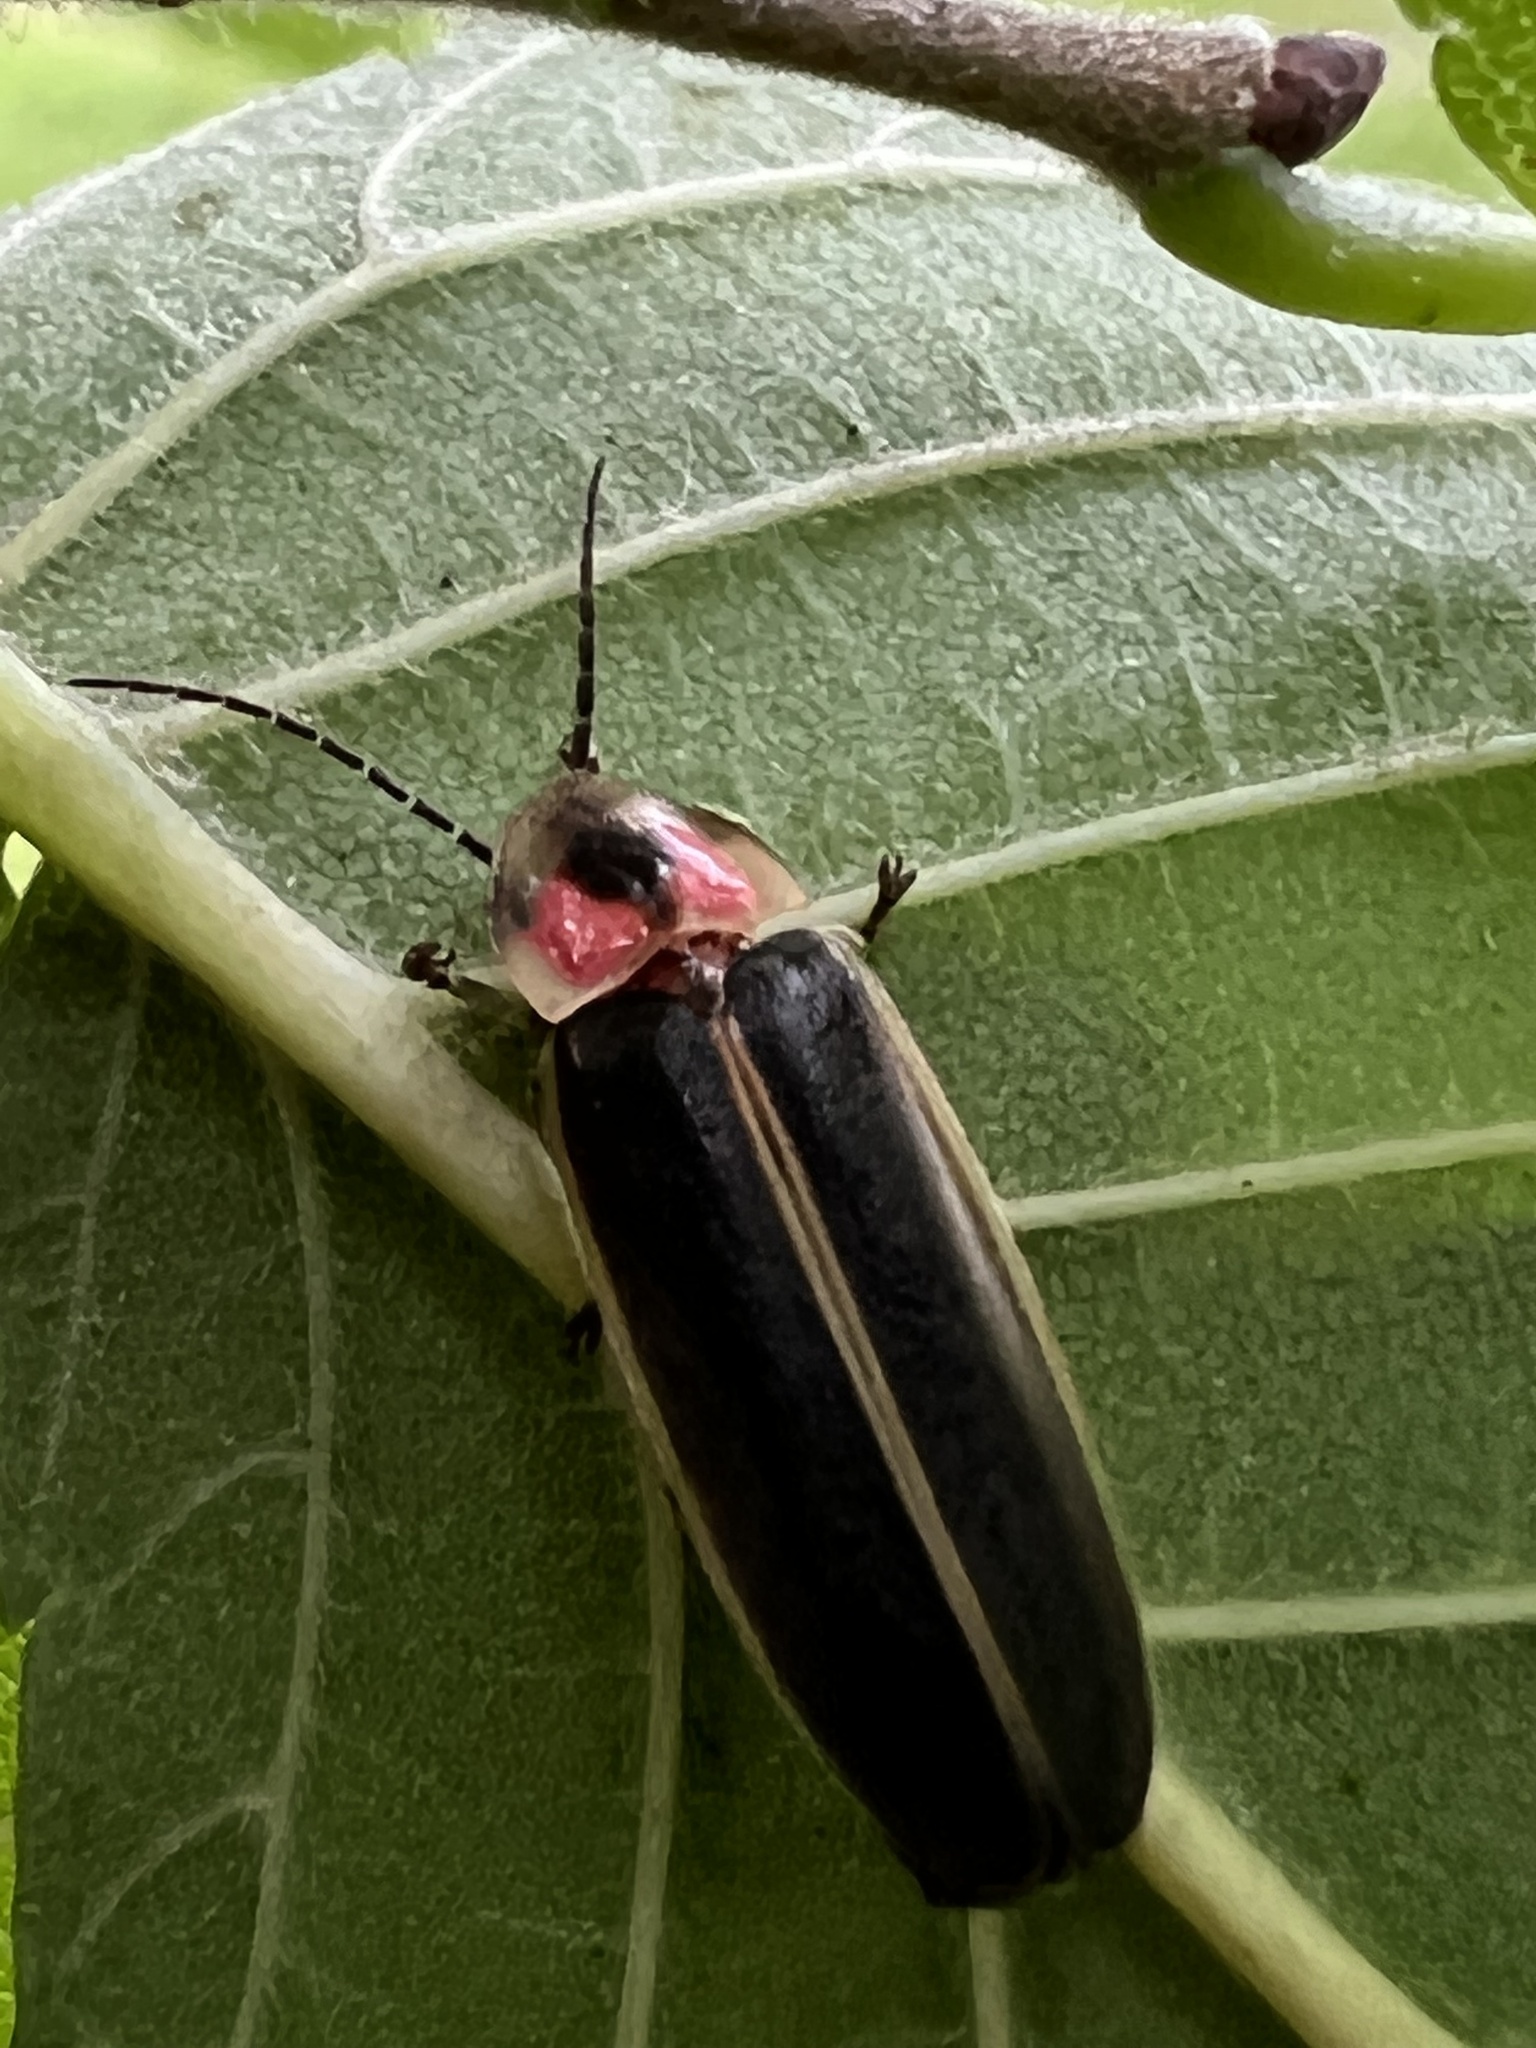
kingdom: Animalia
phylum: Arthropoda
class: Insecta
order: Coleoptera
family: Lampyridae
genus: Photinus
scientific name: Photinus pyralis
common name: Big dipper firefly
